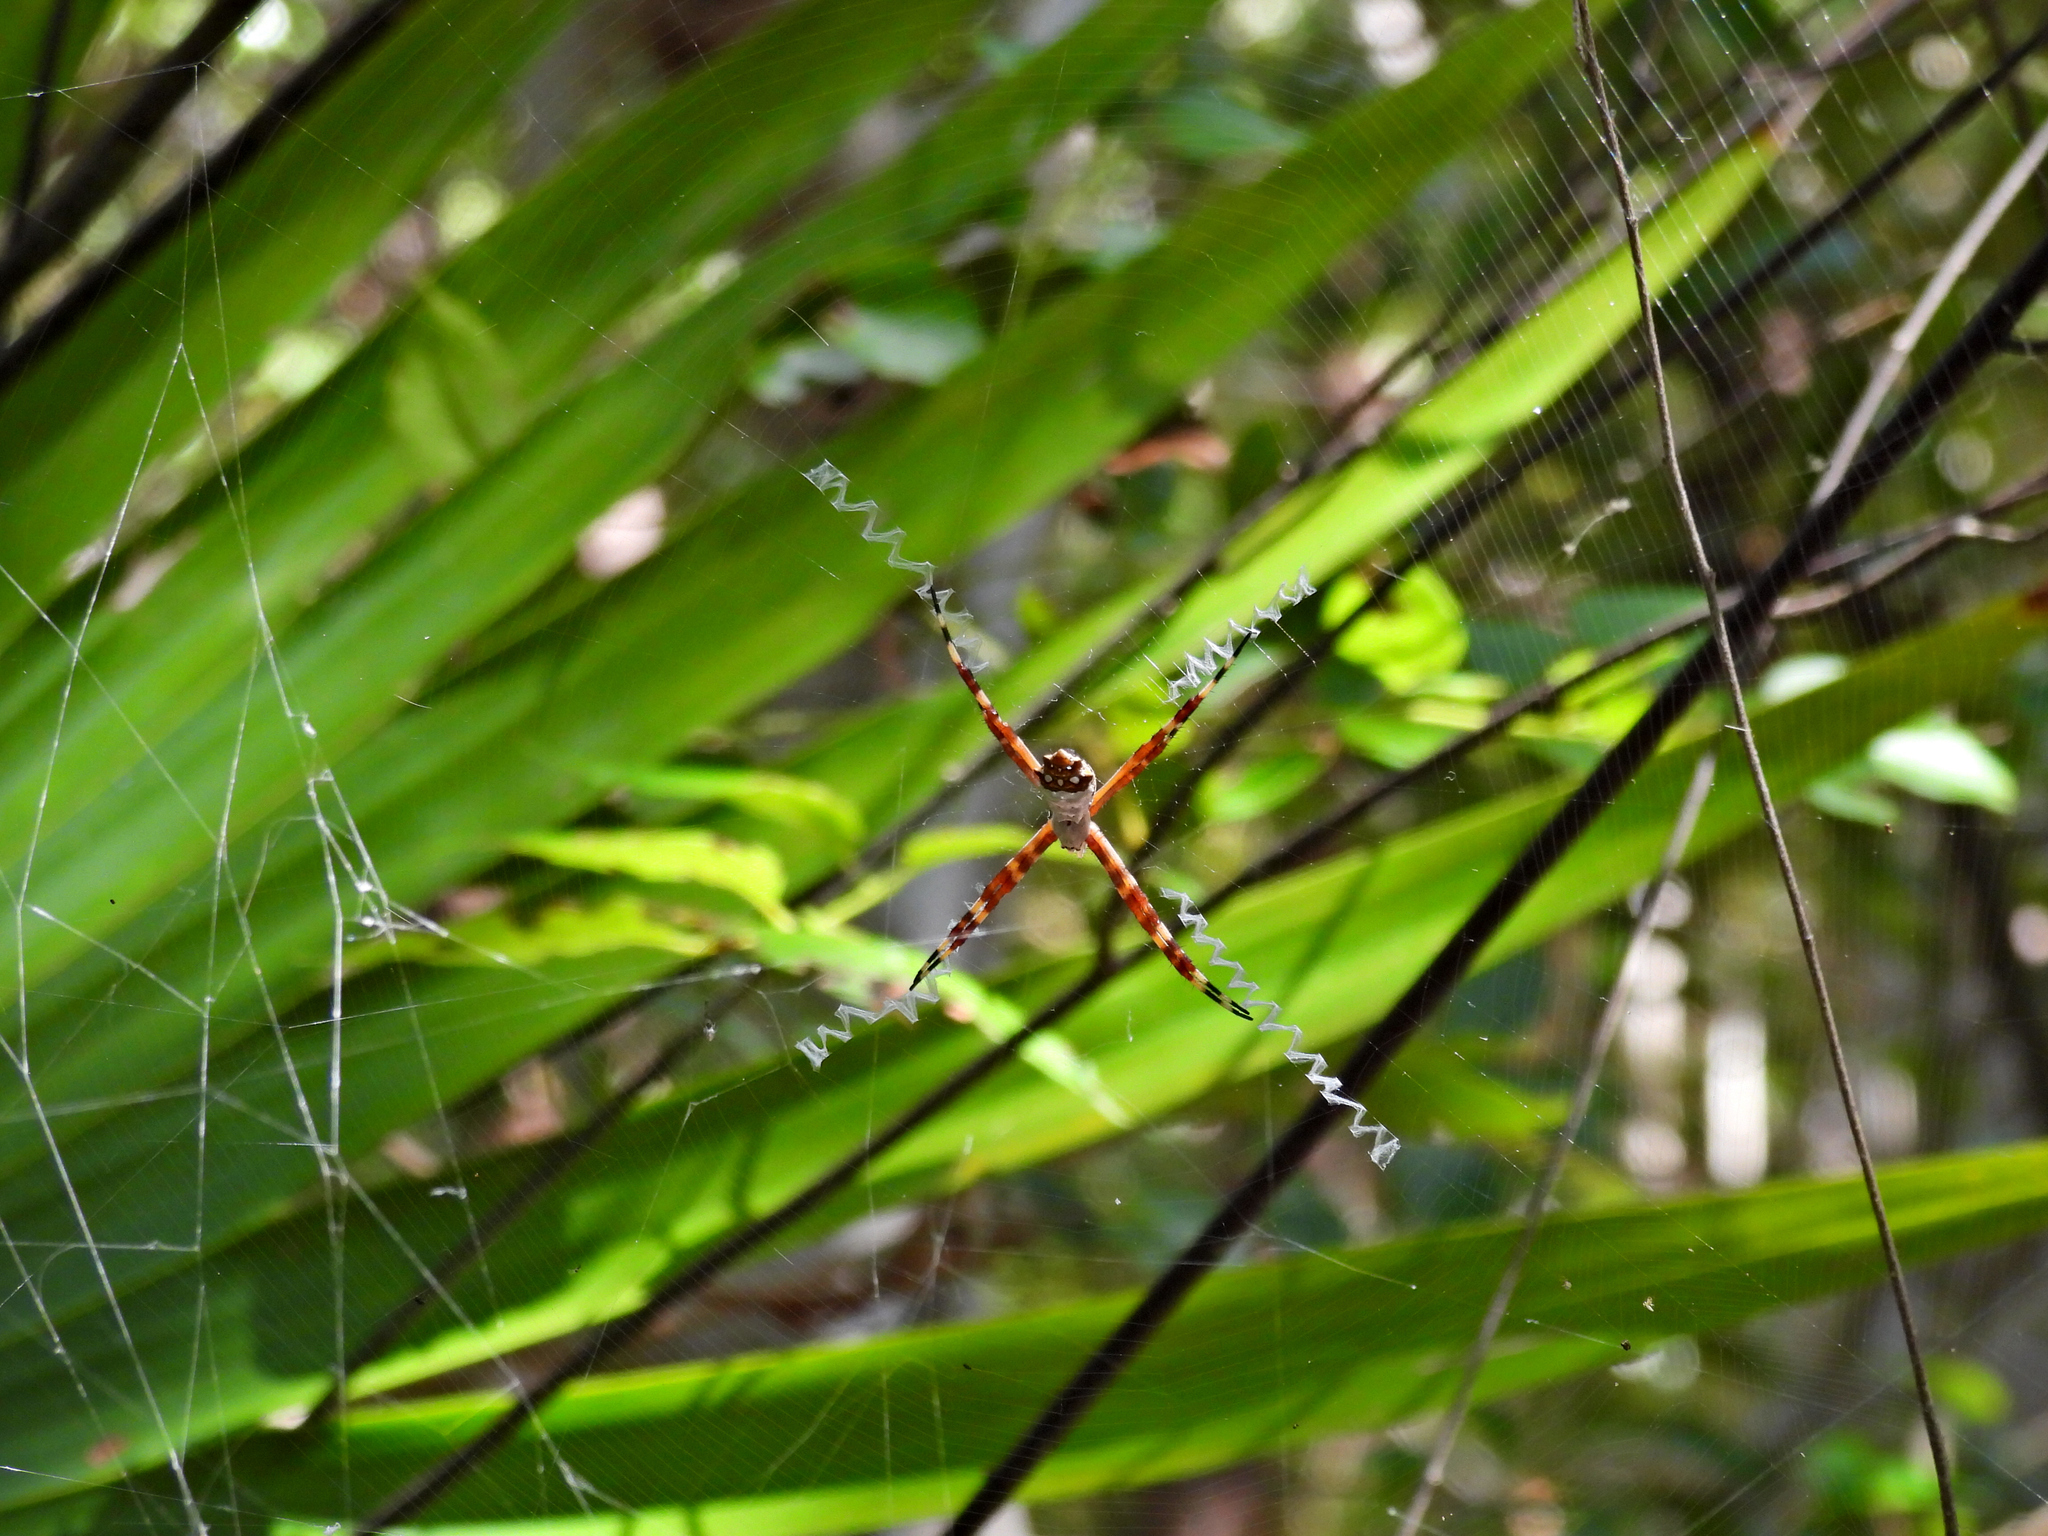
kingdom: Animalia
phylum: Arthropoda
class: Arachnida
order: Araneae
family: Araneidae
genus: Argiope
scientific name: Argiope argentata
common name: Orb weavers
